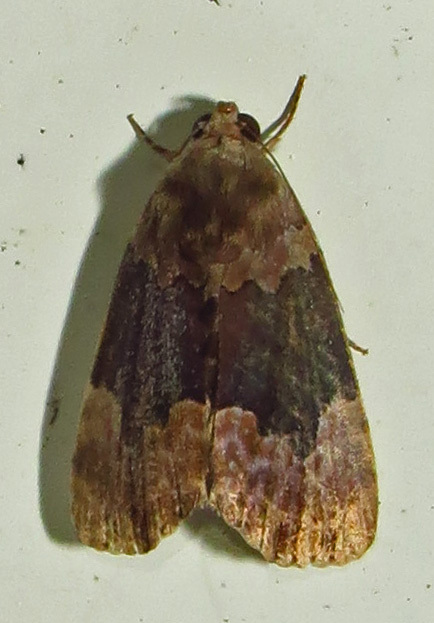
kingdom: Animalia
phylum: Arthropoda
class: Insecta
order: Lepidoptera
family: Erebidae
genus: Dinumma
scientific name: Dinumma deponens
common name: Purplish moth
